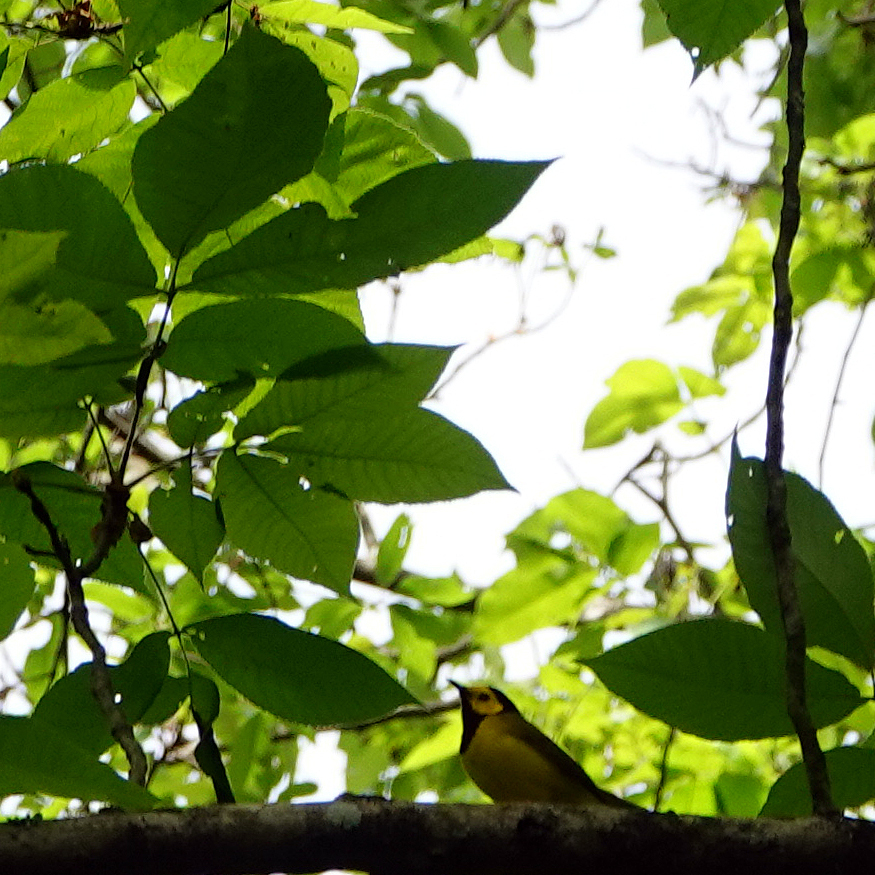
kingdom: Animalia
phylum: Chordata
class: Aves
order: Passeriformes
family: Parulidae
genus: Setophaga
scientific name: Setophaga citrina
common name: Hooded warbler
